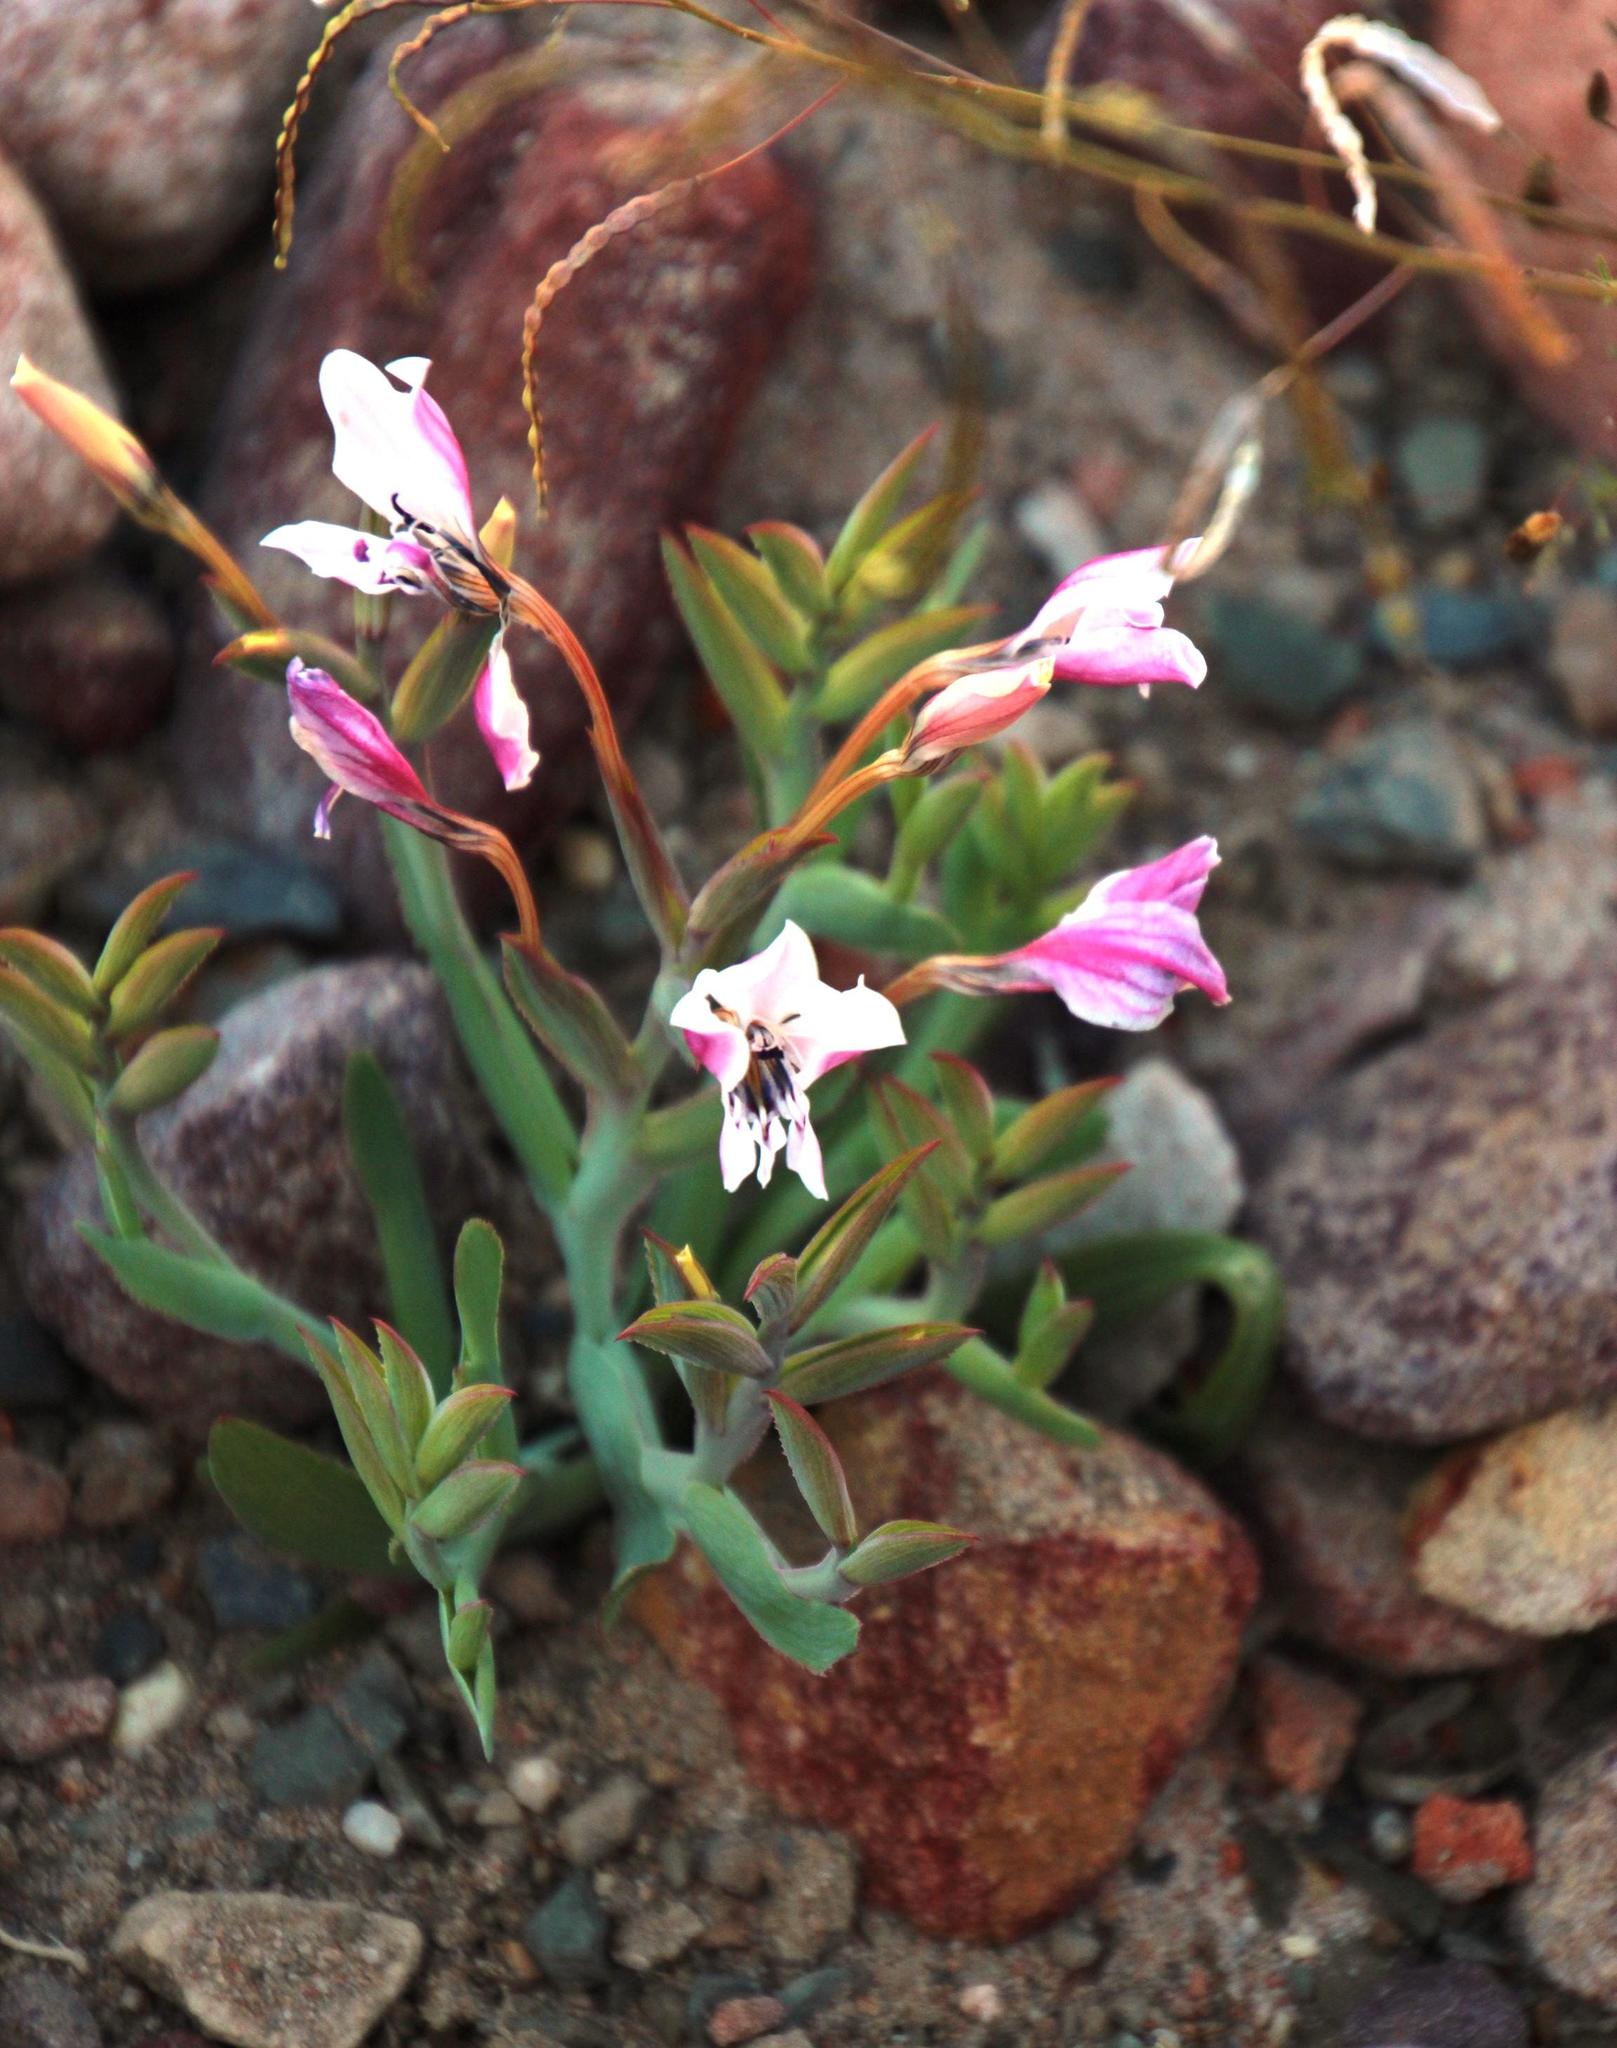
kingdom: Plantae
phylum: Tracheophyta
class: Liliopsida
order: Asparagales
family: Iridaceae
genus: Lapeirousia
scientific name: Lapeirousia fabricii
